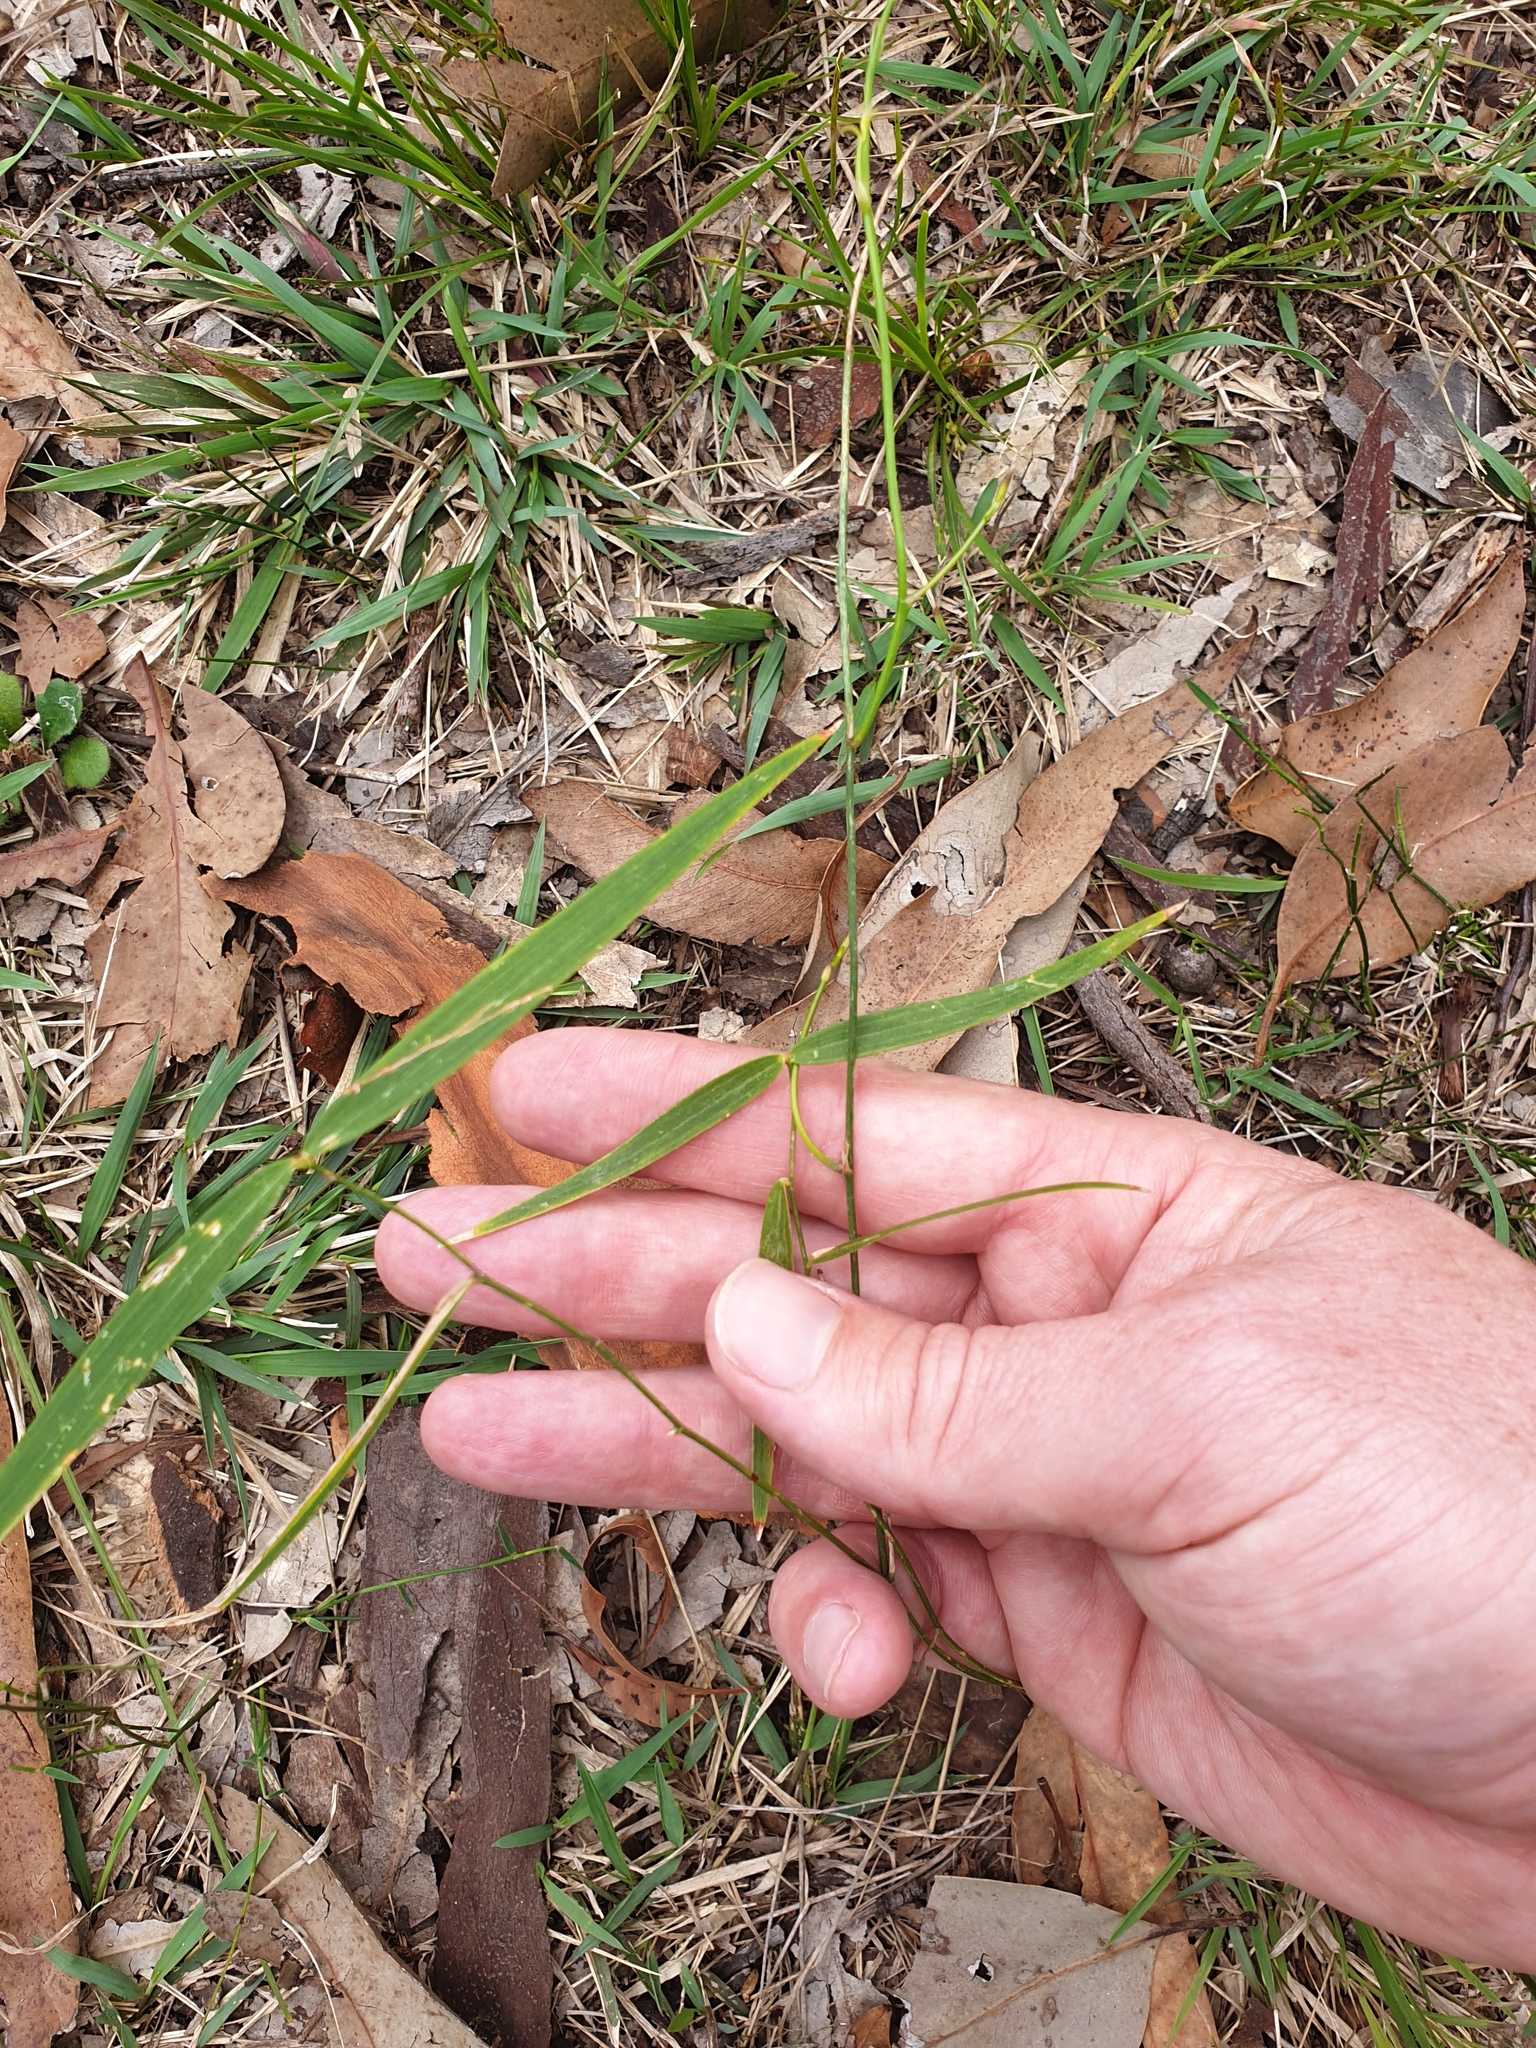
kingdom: Plantae
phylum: Tracheophyta
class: Liliopsida
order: Asparagales
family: Asparagaceae
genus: Eustrephus
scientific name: Eustrephus latifolius
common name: Orangevine
